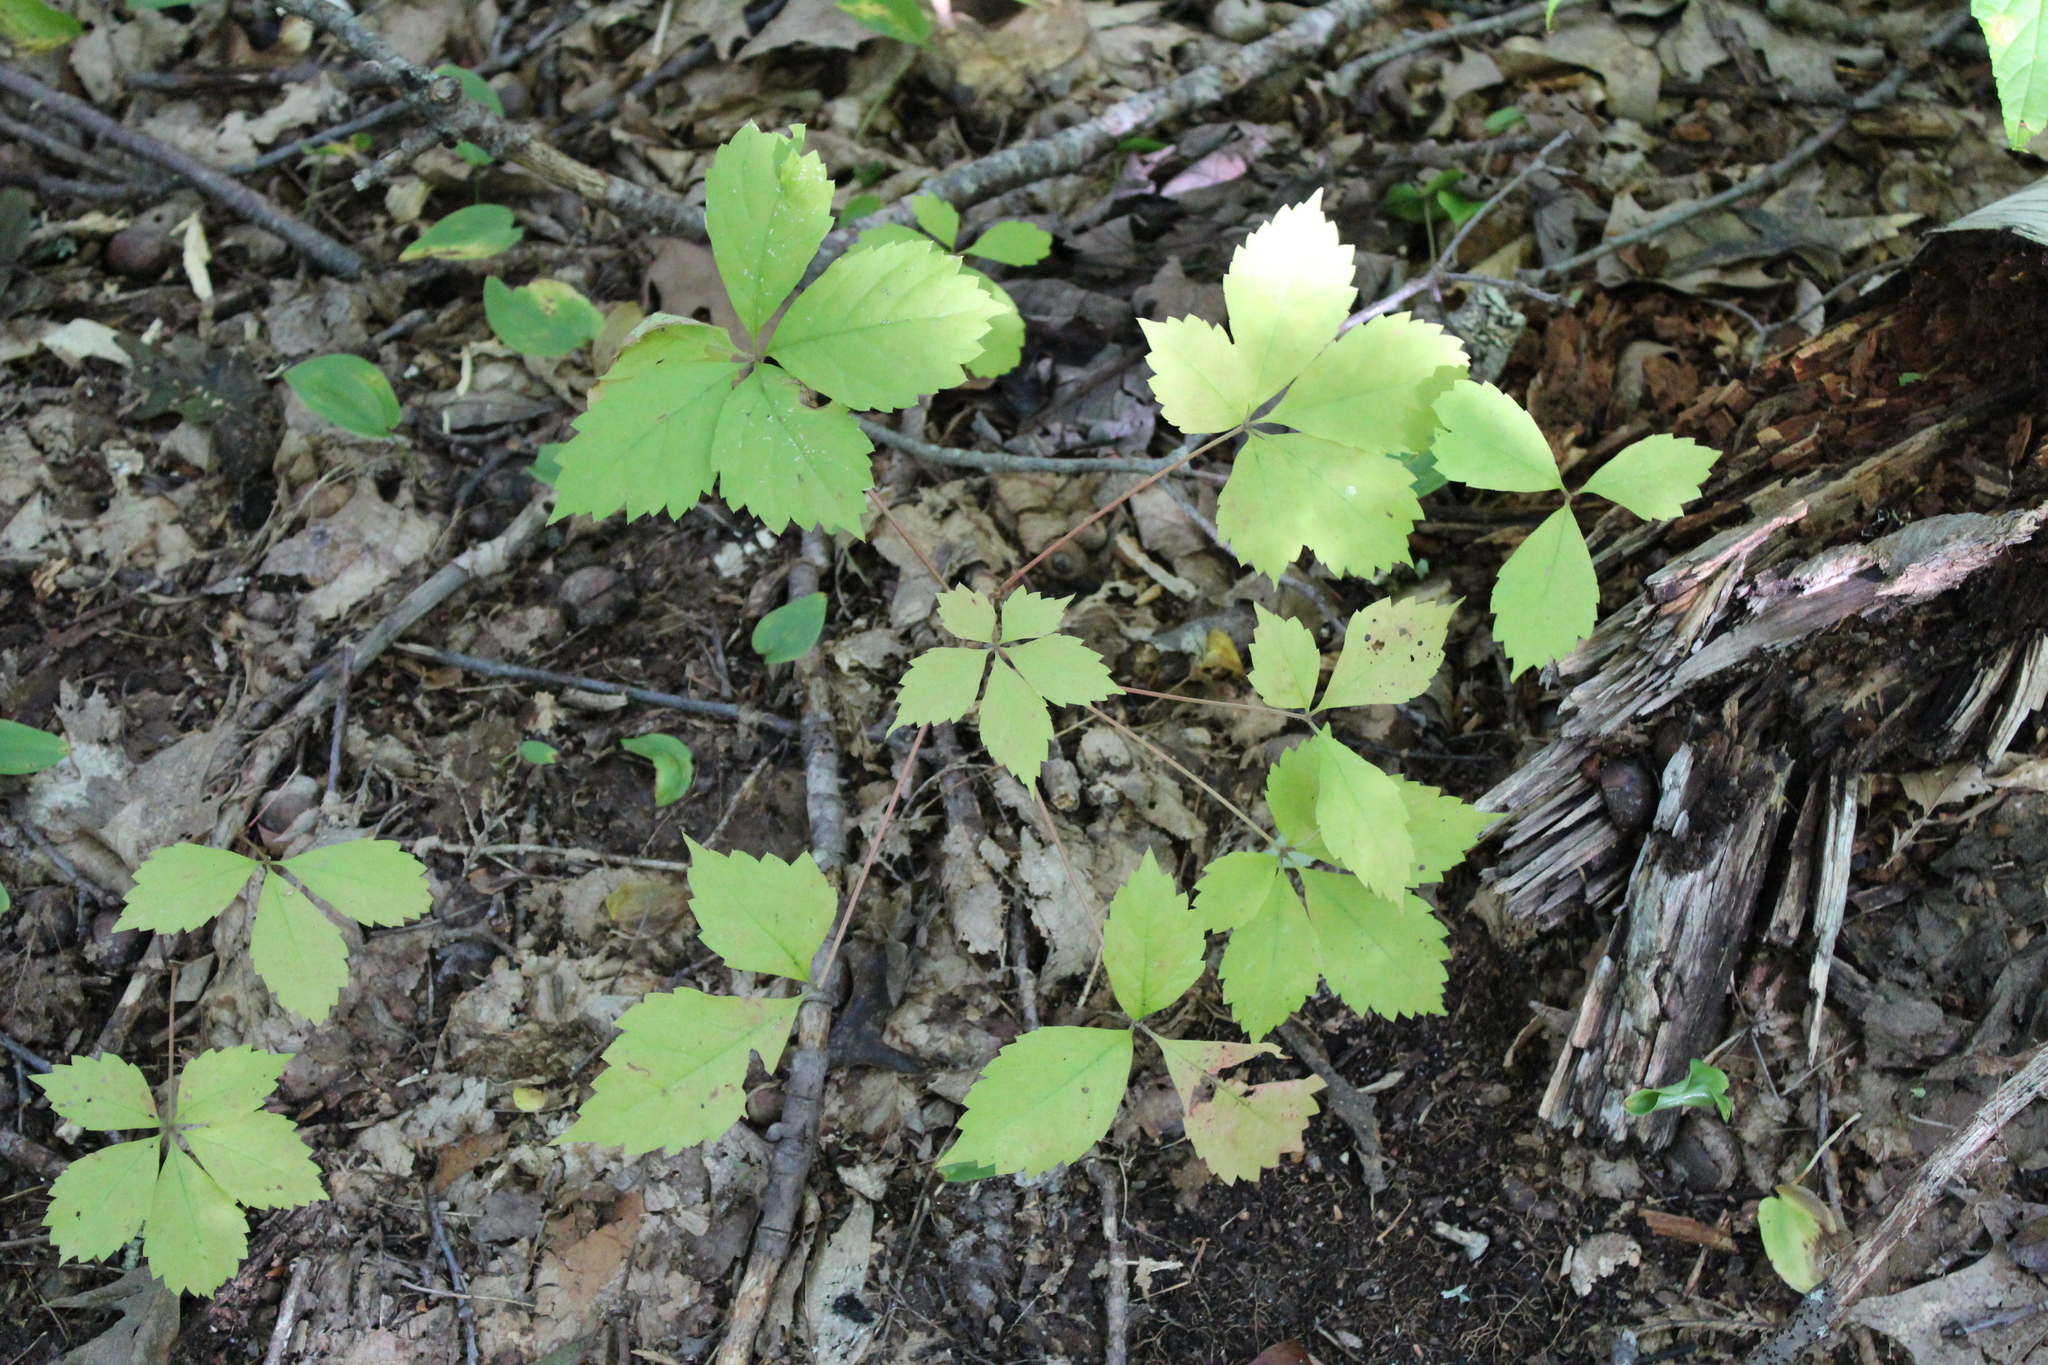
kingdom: Plantae
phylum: Tracheophyta
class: Magnoliopsida
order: Vitales
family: Vitaceae
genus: Parthenocissus
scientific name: Parthenocissus quinquefolia
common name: Virginia-creeper
